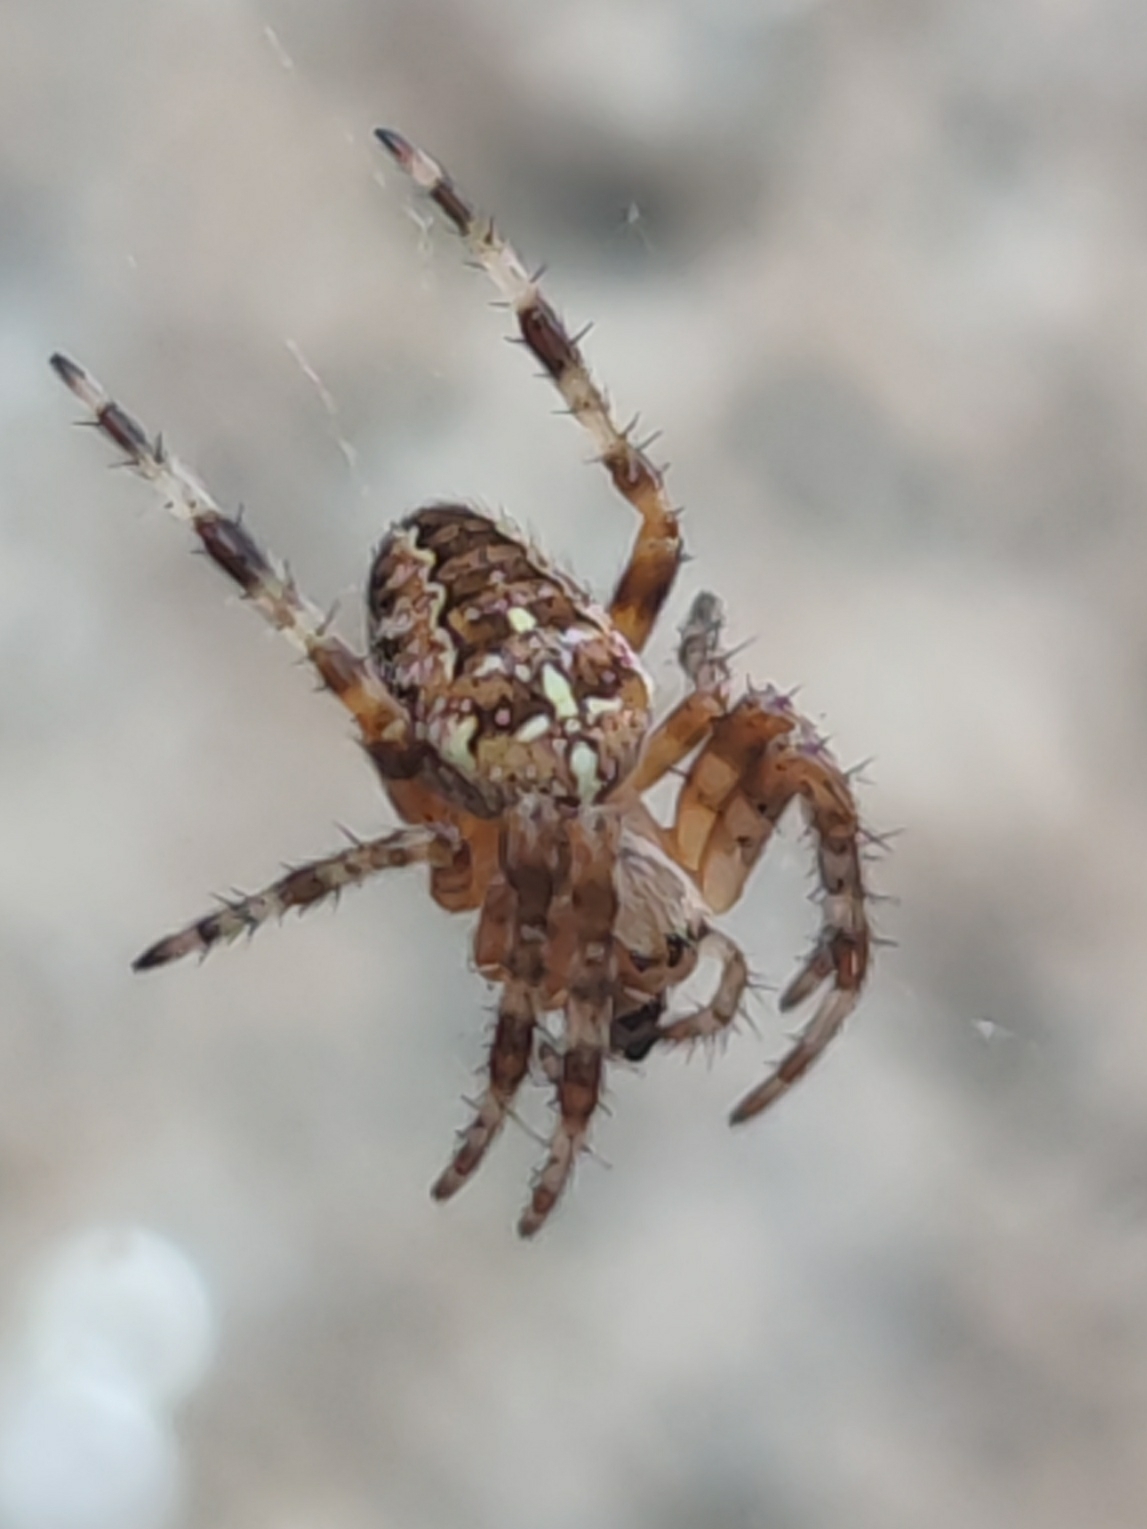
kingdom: Animalia
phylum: Arthropoda
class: Arachnida
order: Araneae
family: Araneidae
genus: Araneus
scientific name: Araneus diadematus
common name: Cross orbweaver
